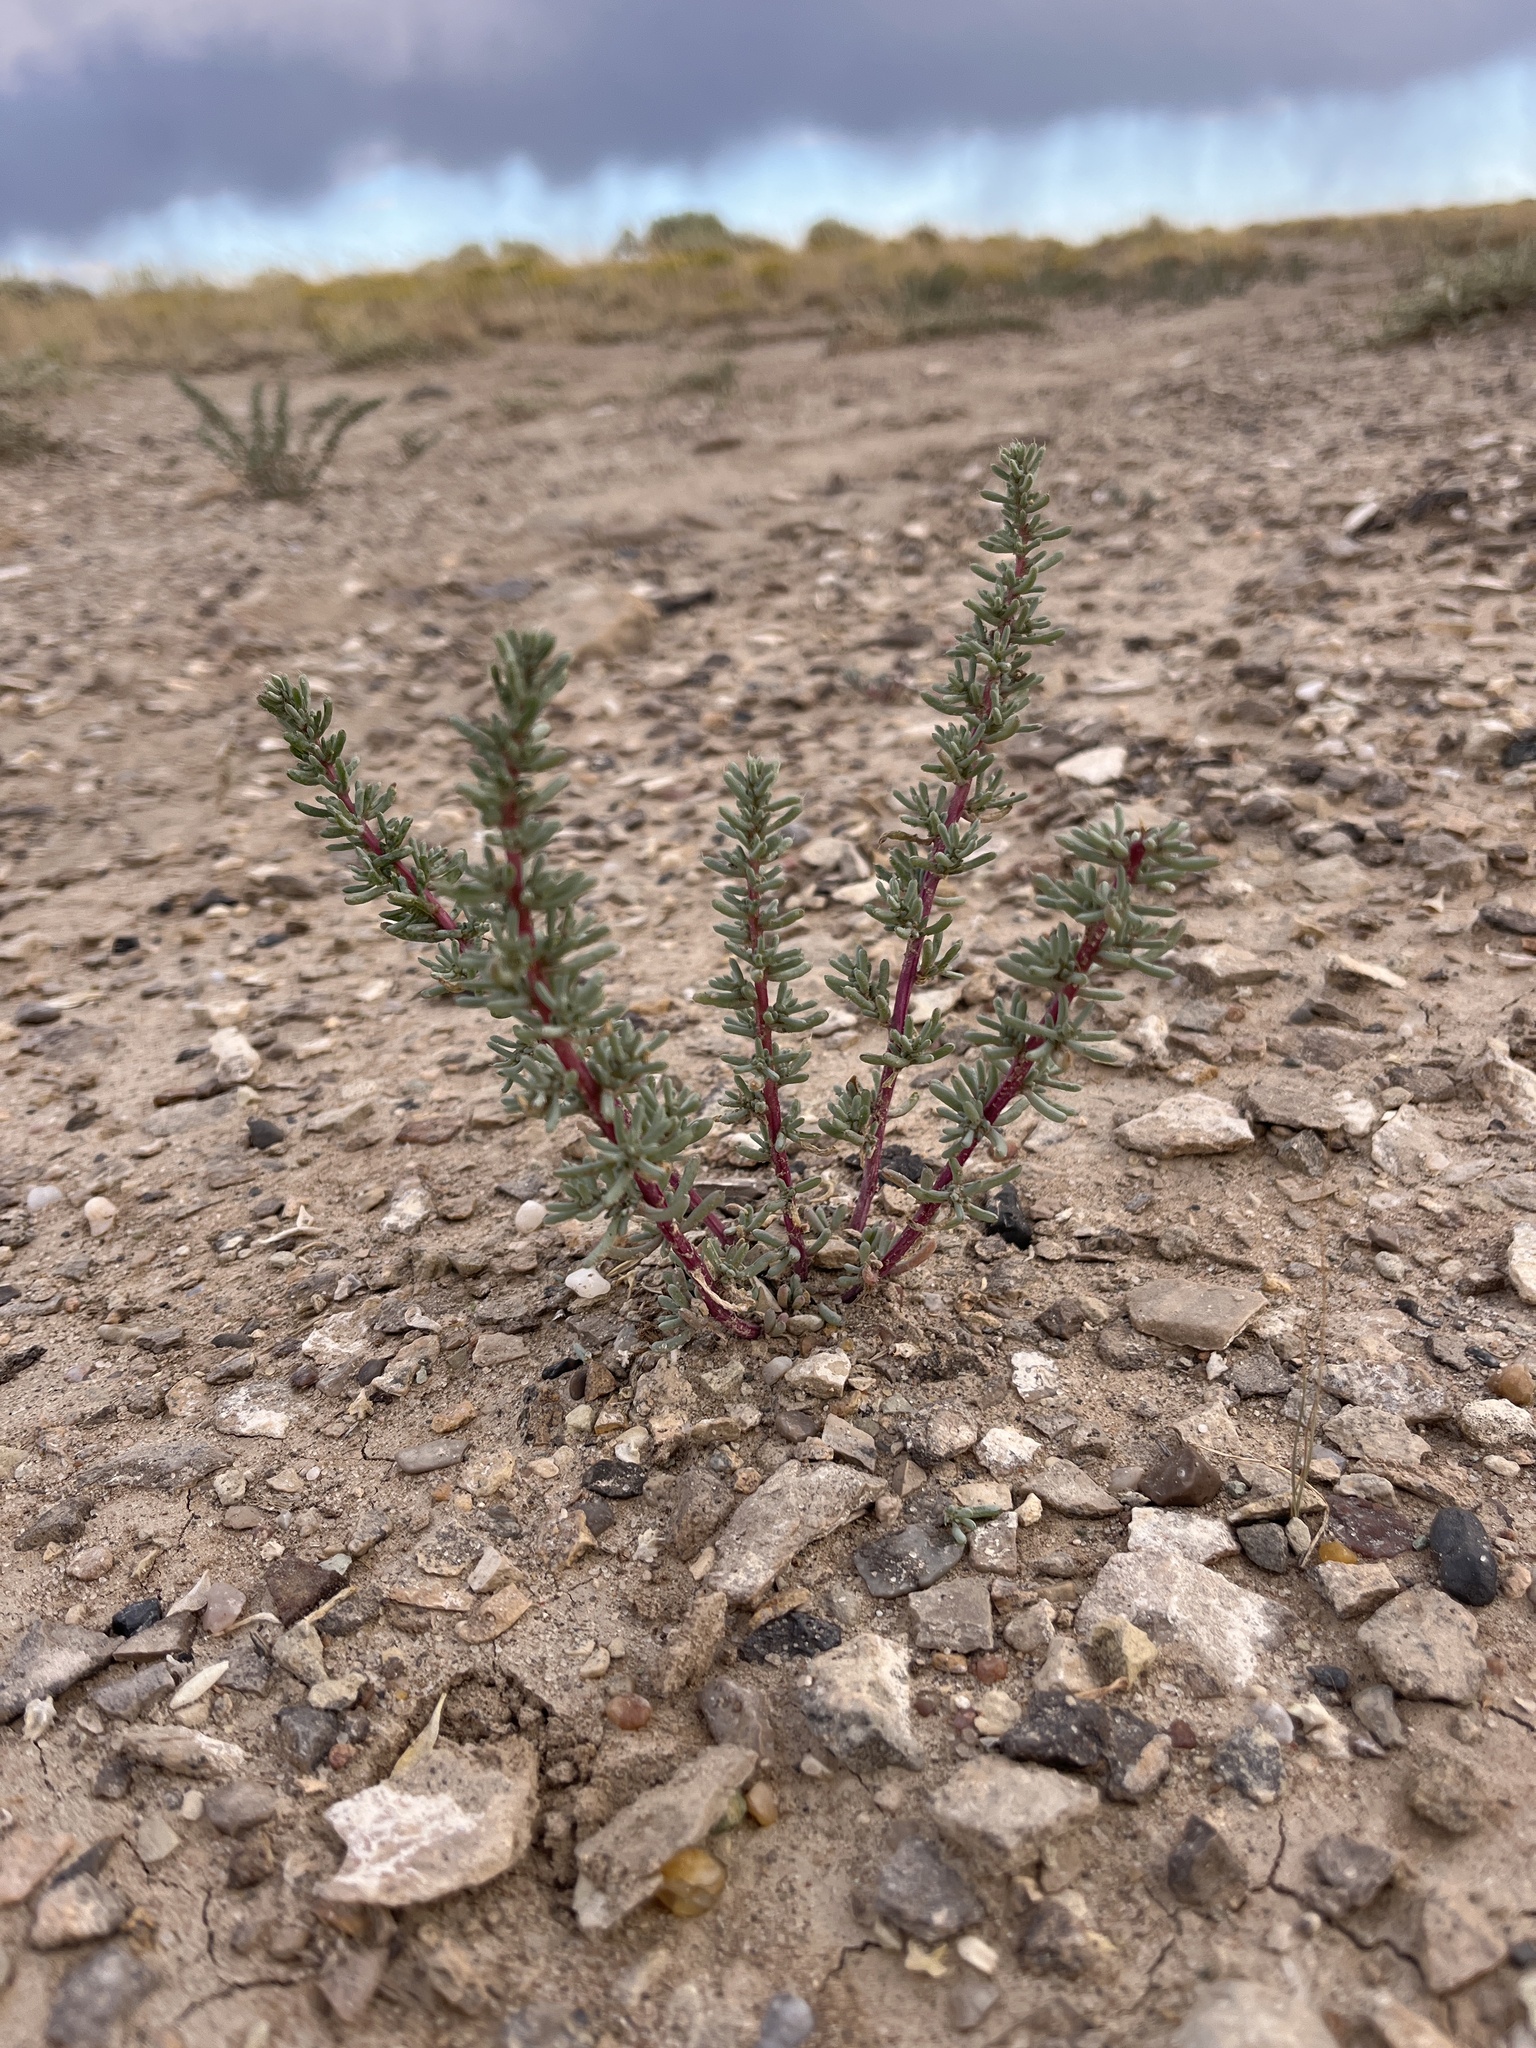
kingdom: Plantae
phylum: Tracheophyta
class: Magnoliopsida
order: Caryophyllales
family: Amaranthaceae
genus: Halogeton
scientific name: Halogeton glomeratus
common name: Saltlover
